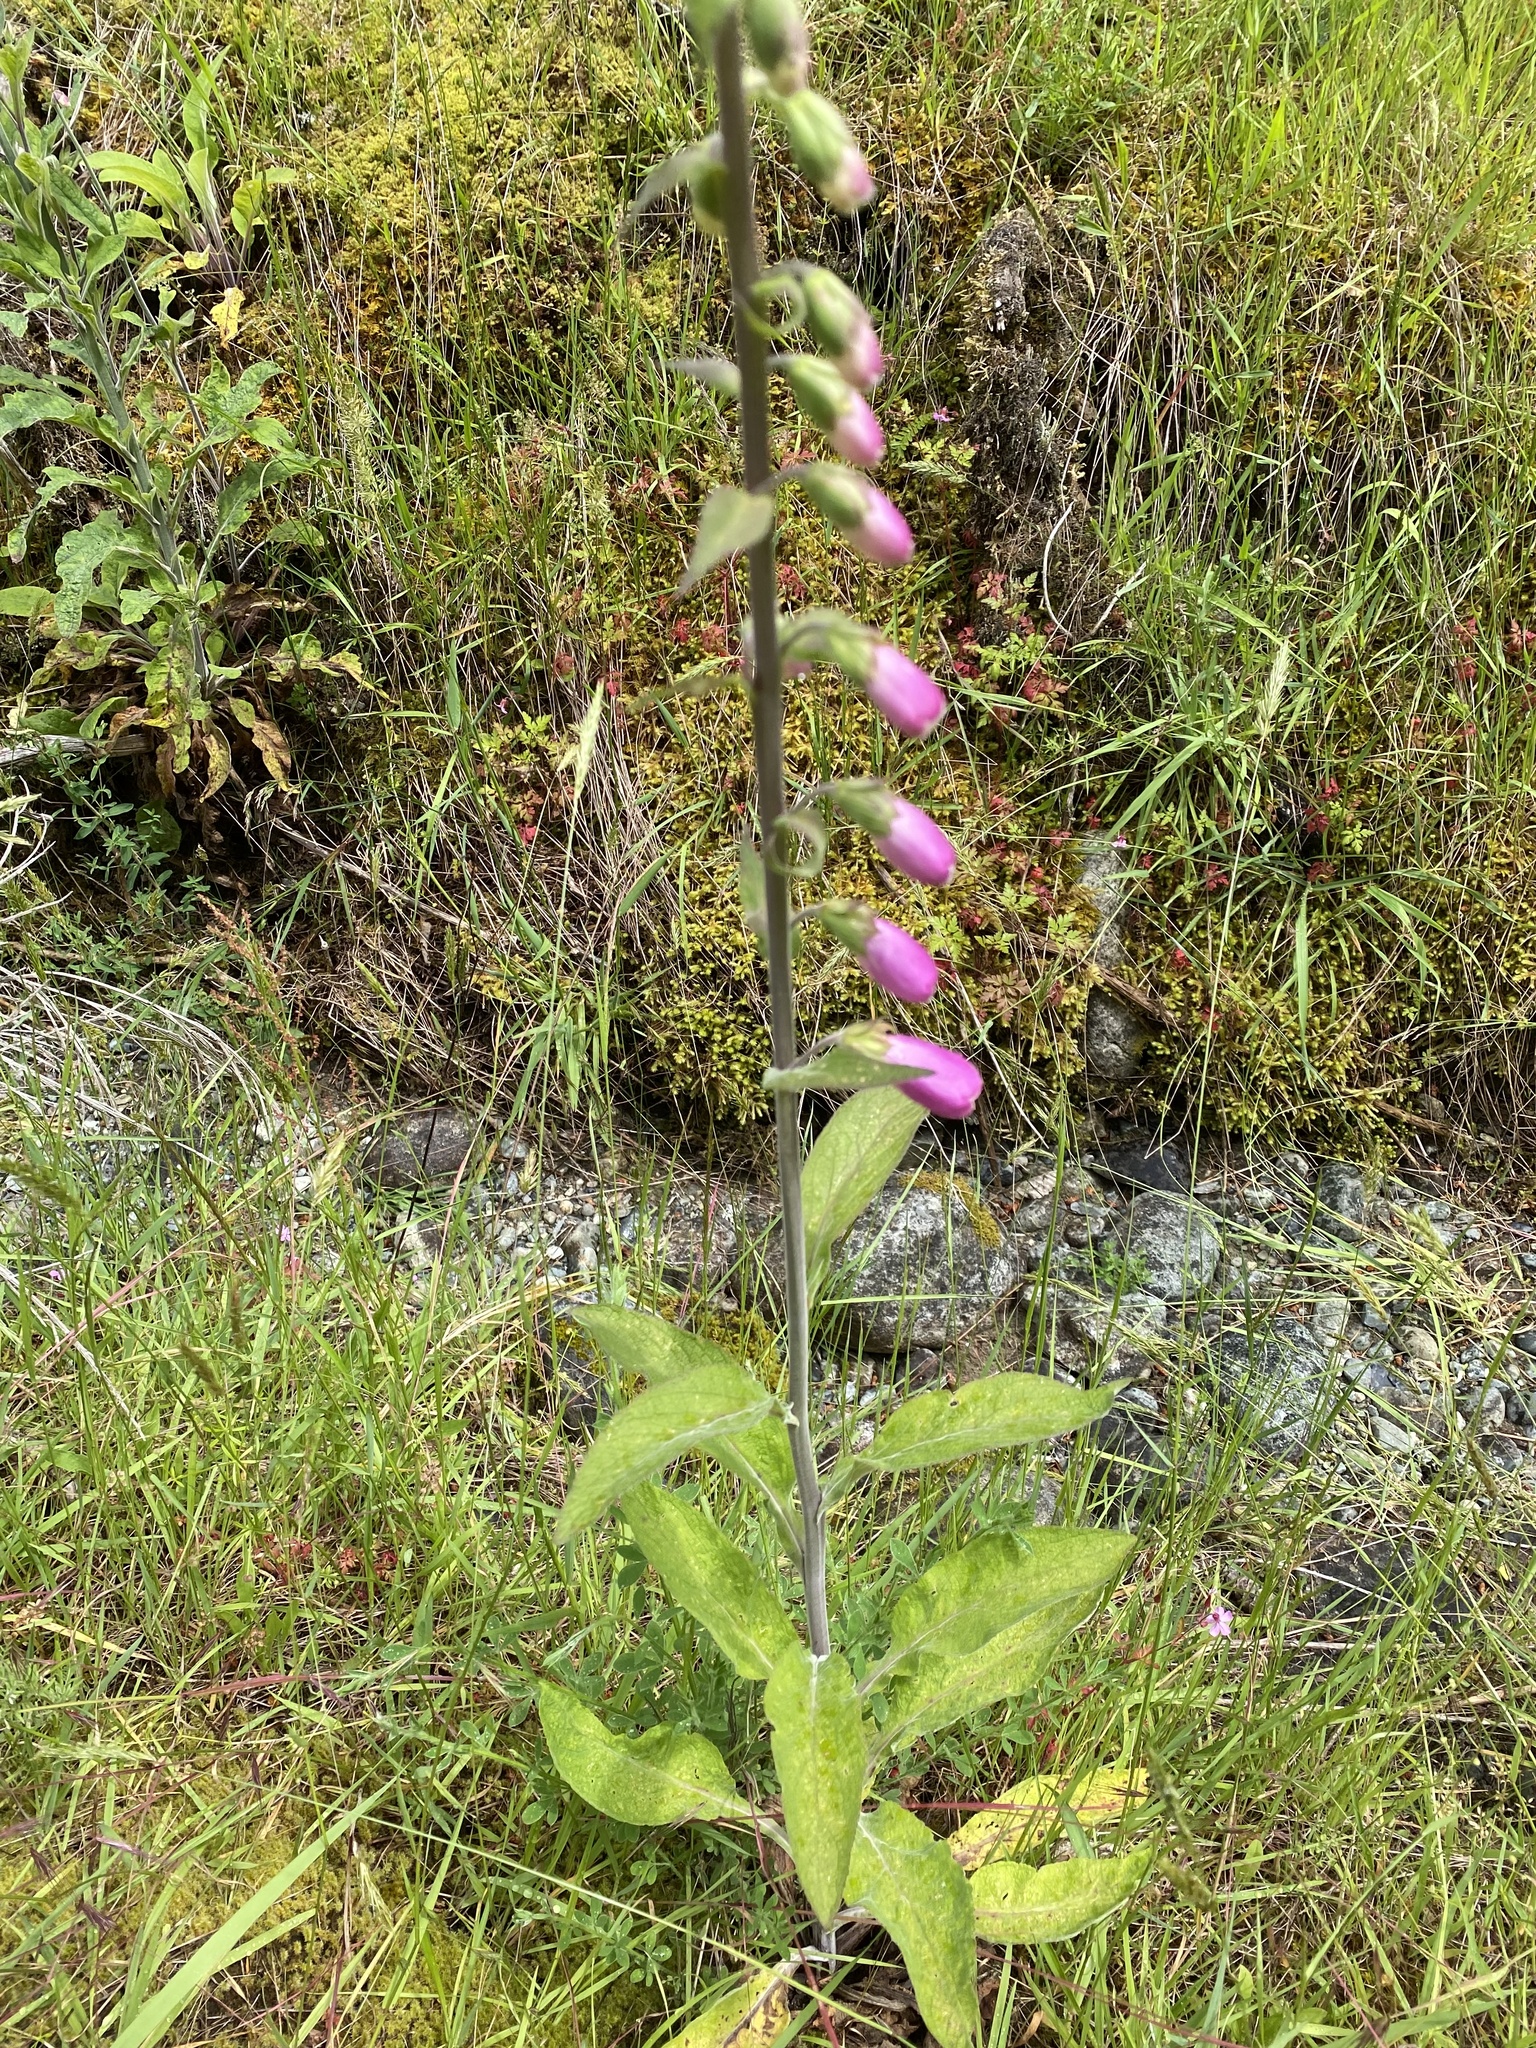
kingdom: Plantae
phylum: Tracheophyta
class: Magnoliopsida
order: Lamiales
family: Plantaginaceae
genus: Digitalis
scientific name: Digitalis purpurea
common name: Foxglove
